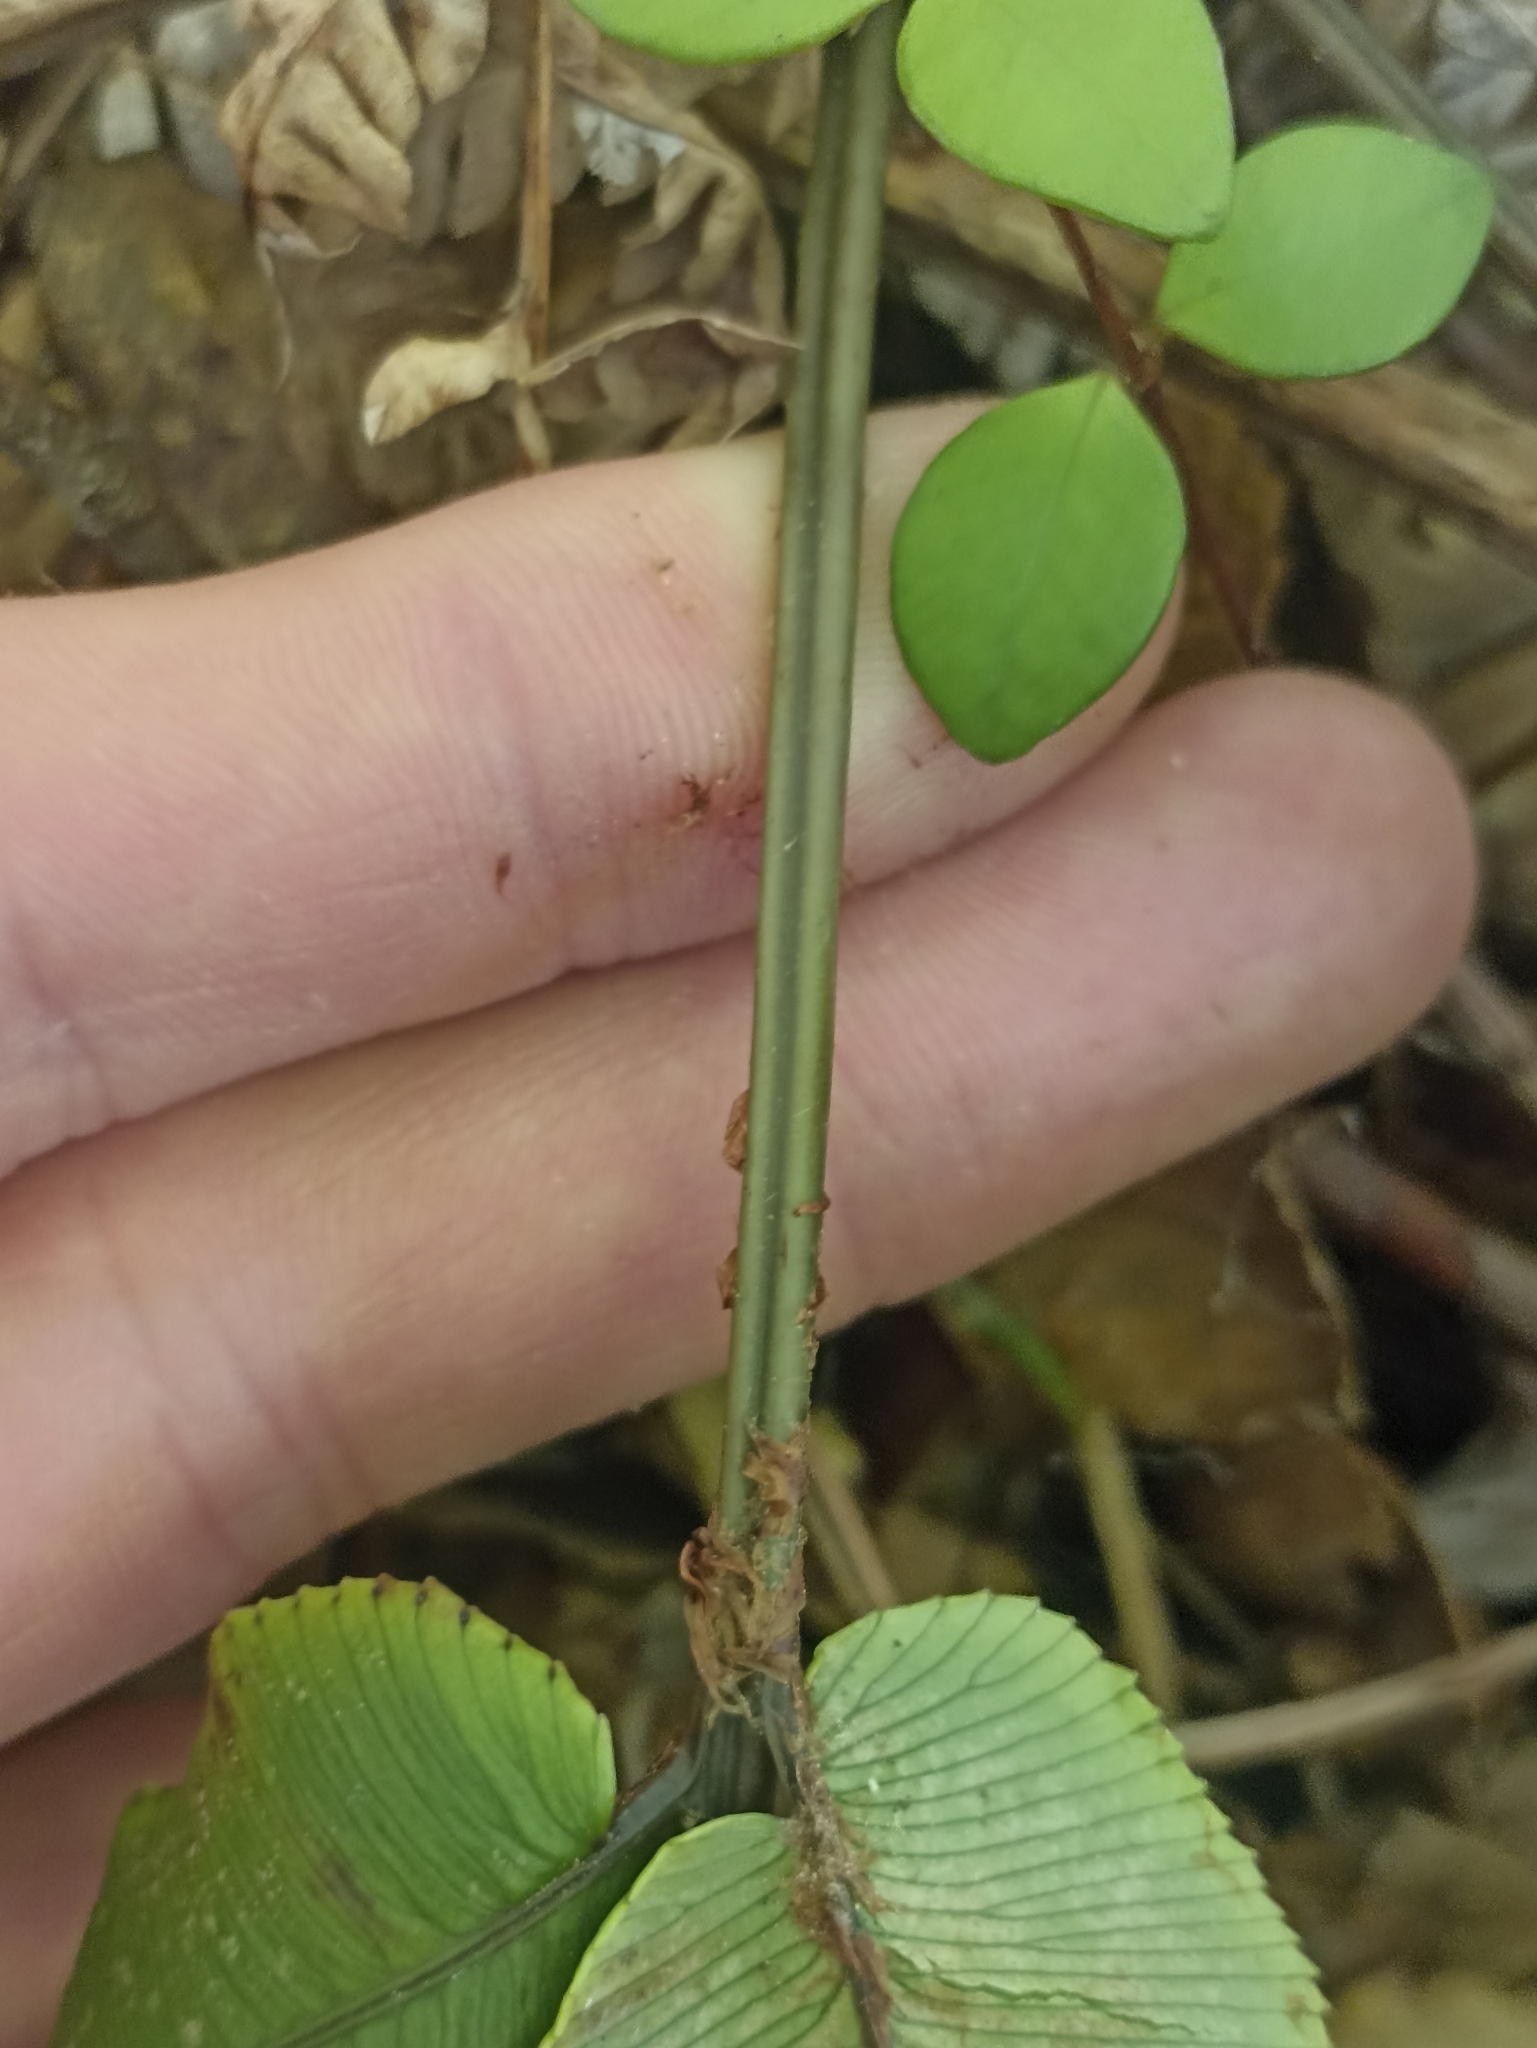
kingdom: Plantae
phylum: Tracheophyta
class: Polypodiopsida
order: Polypodiales
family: Blechnaceae
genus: Parablechnum
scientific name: Parablechnum procerum
